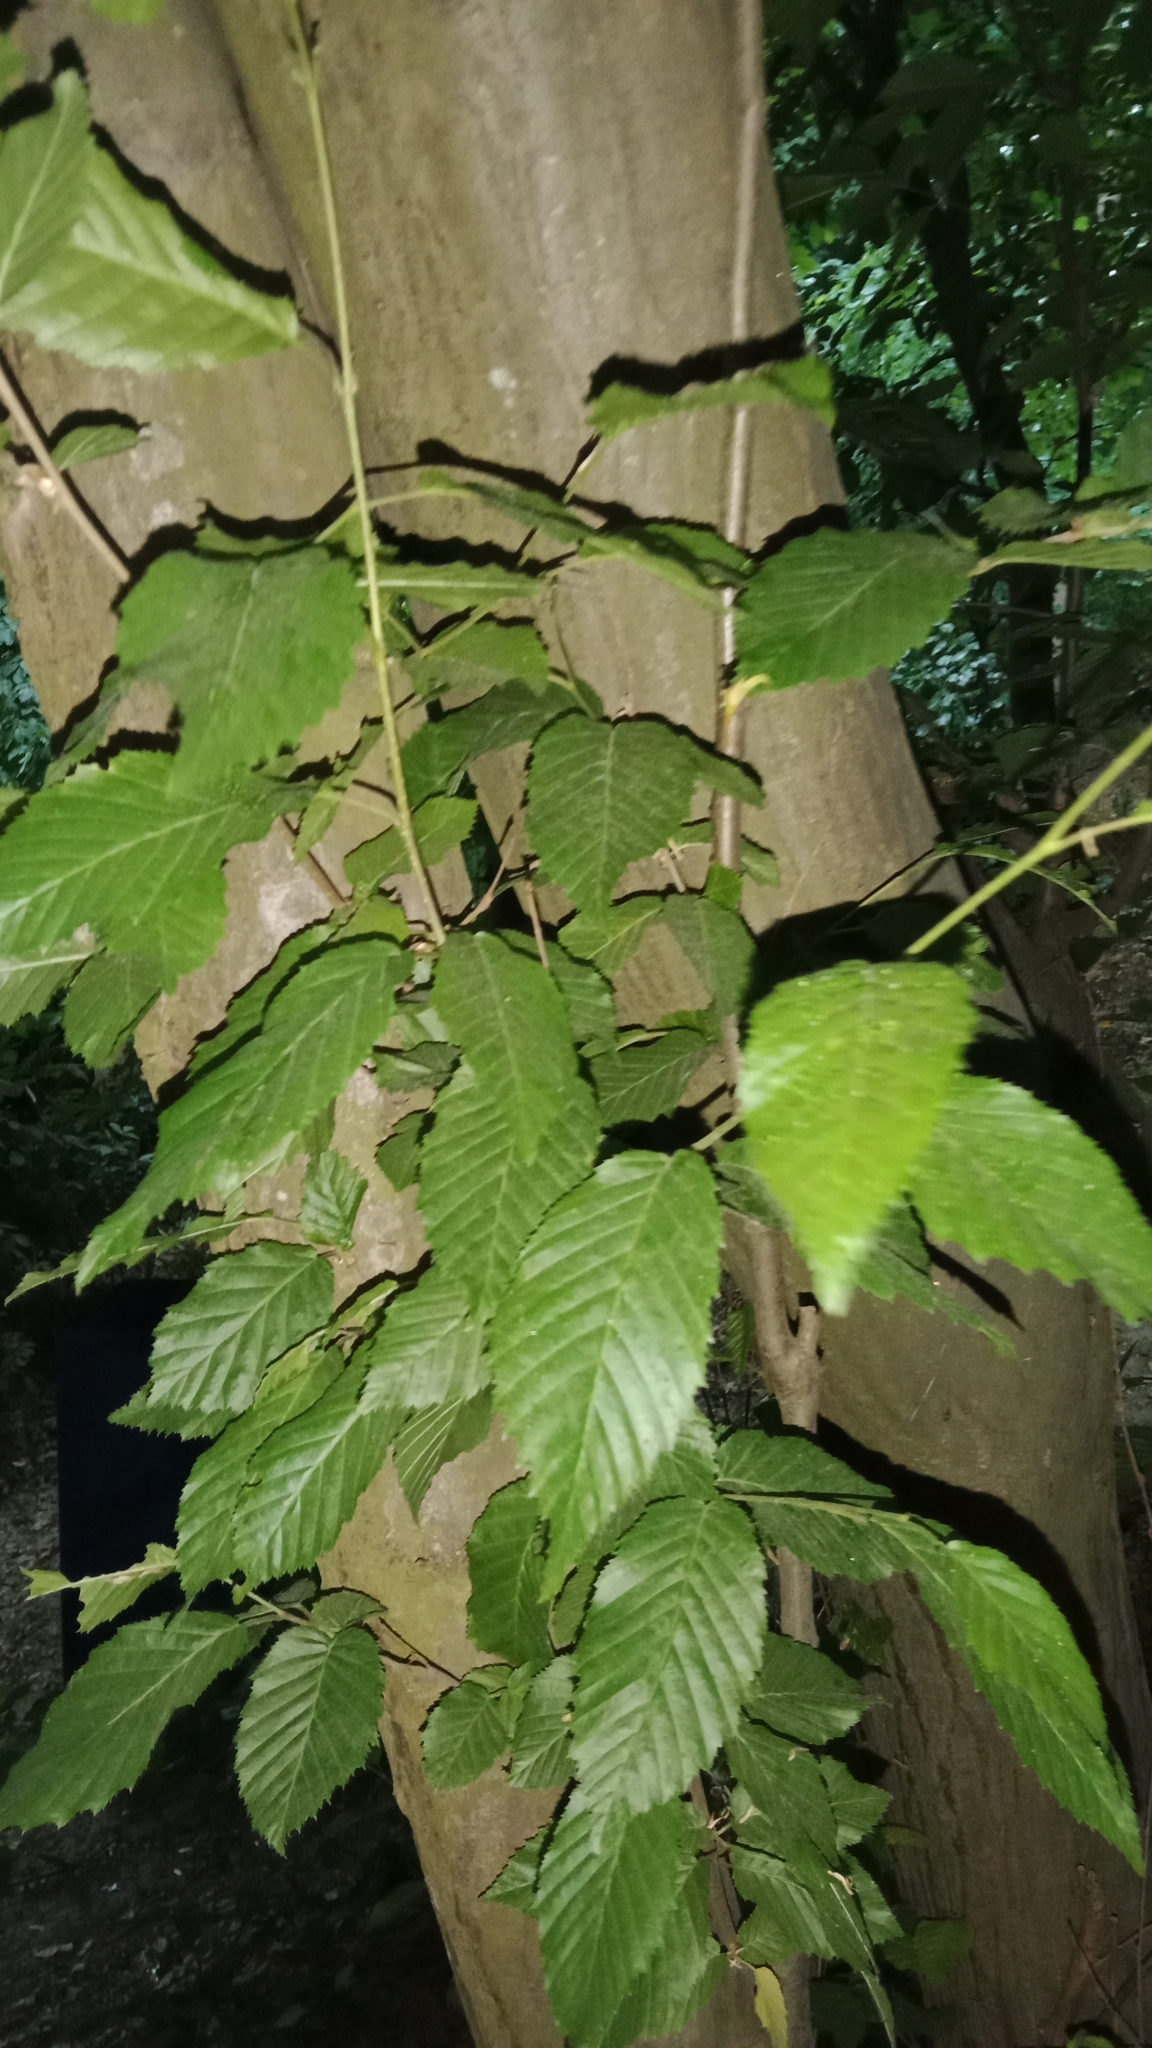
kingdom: Fungi
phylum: Ascomycota
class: Taphrinomycetes
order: Taphrinales
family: Taphrinaceae
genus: Taphrina
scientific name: Taphrina carpini
